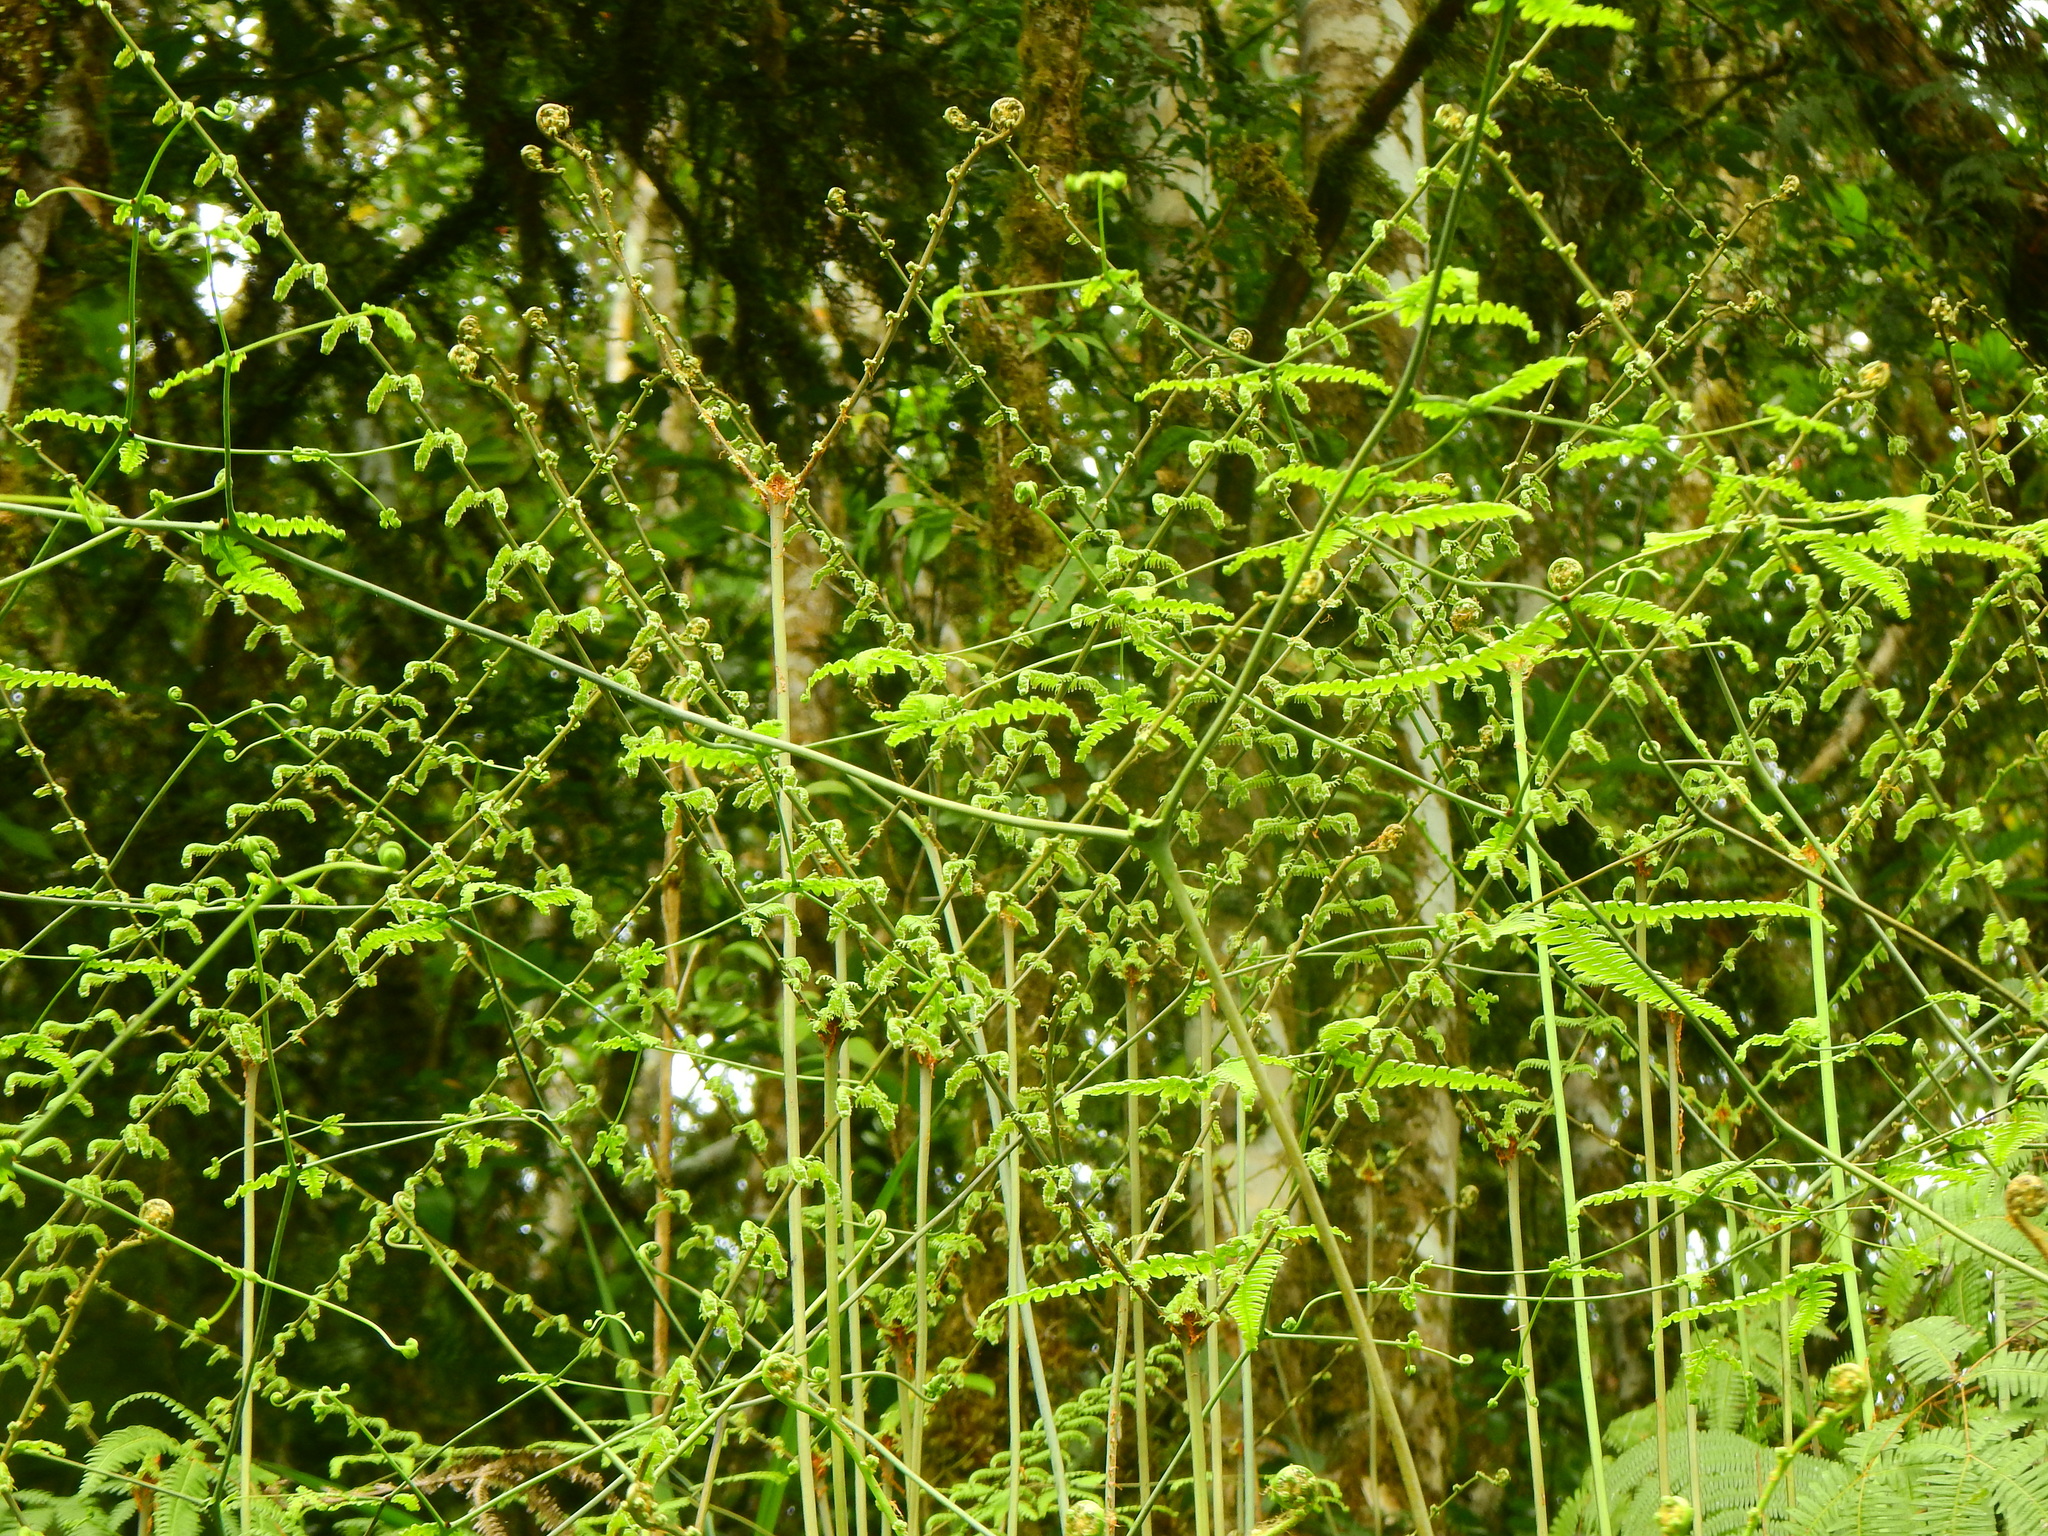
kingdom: Plantae
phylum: Tracheophyta
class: Polypodiopsida
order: Gleicheniales
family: Gleicheniaceae
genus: Diplopterygium
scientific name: Diplopterygium glaucum
